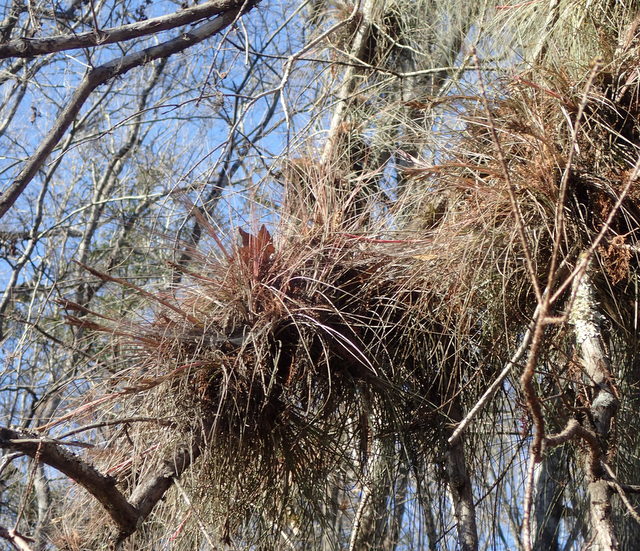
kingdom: Plantae
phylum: Tracheophyta
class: Liliopsida
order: Poales
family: Bromeliaceae
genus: Tillandsia
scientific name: Tillandsia bartramii
